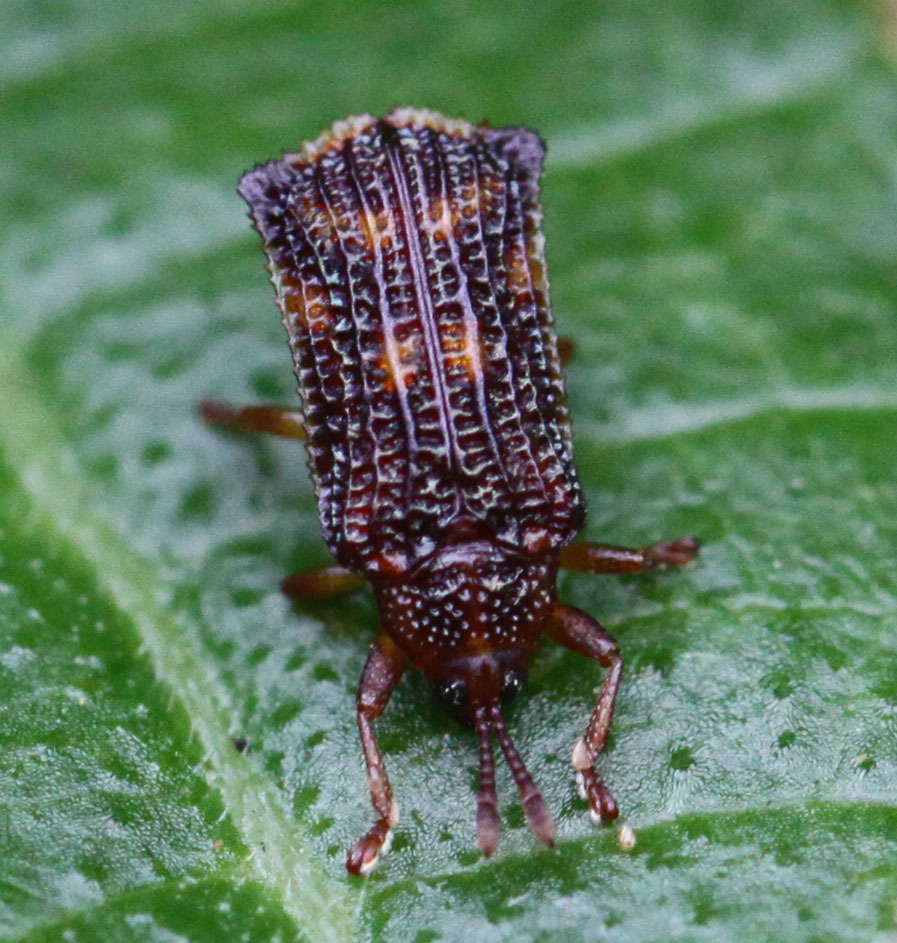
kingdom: Animalia
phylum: Arthropoda
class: Insecta
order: Coleoptera
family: Chrysomelidae
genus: Uroplata
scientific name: Uroplata girardi
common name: Lantana leafminer
